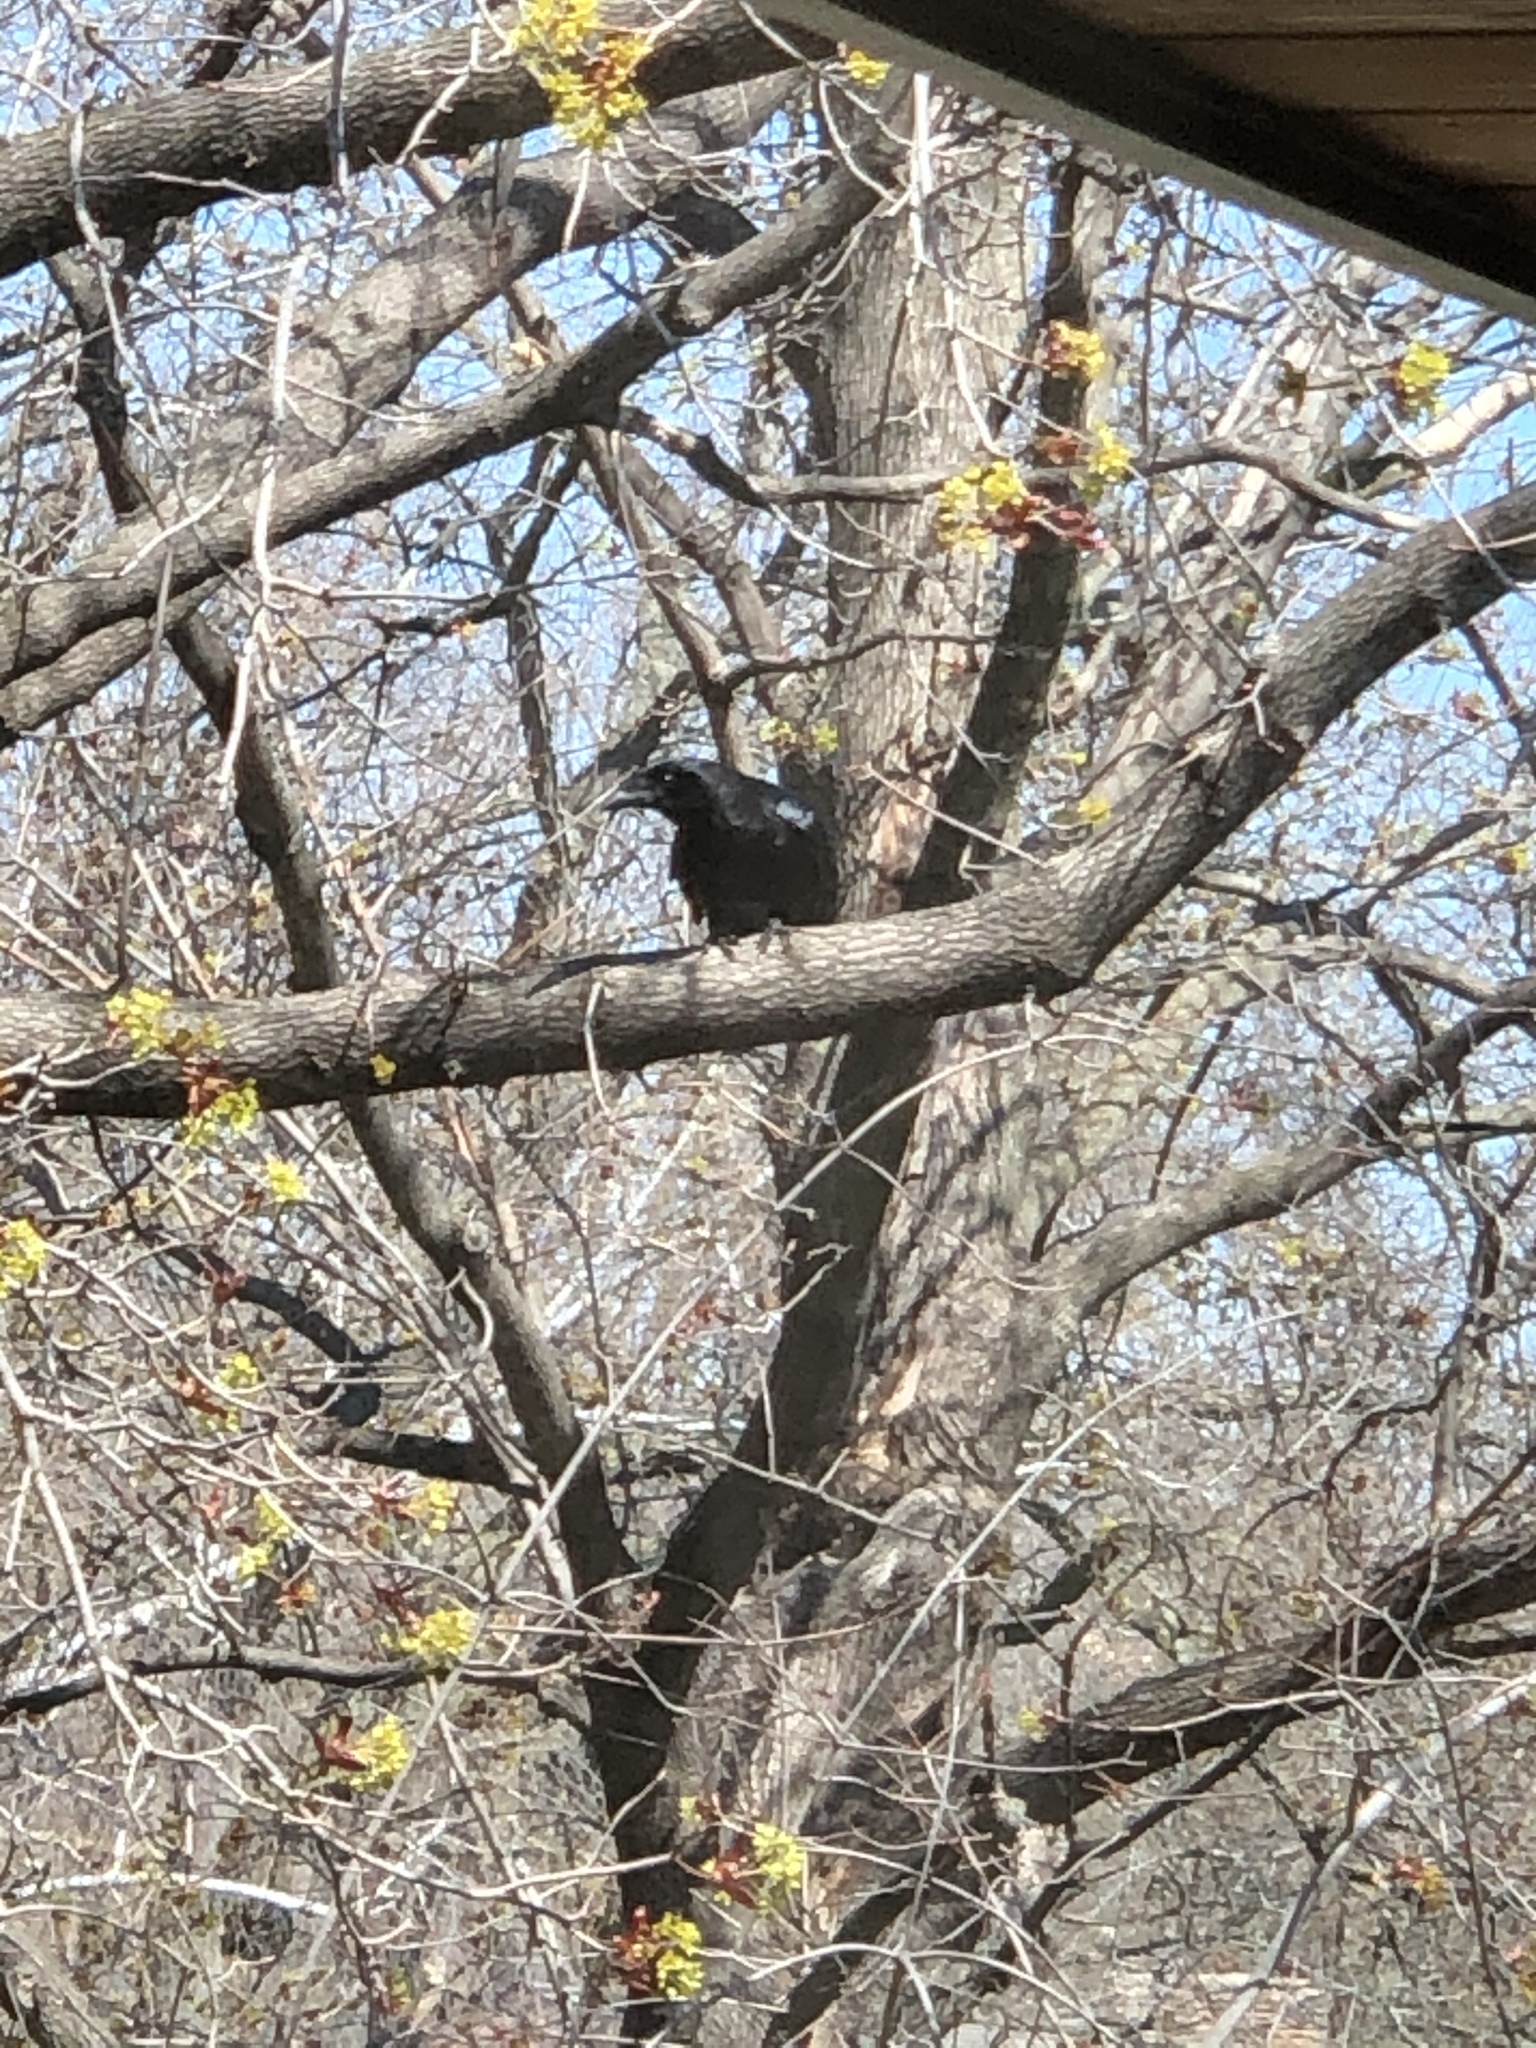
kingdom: Animalia
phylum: Chordata
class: Aves
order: Passeriformes
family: Corvidae
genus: Corvus
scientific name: Corvus brachyrhynchos
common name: American crow
